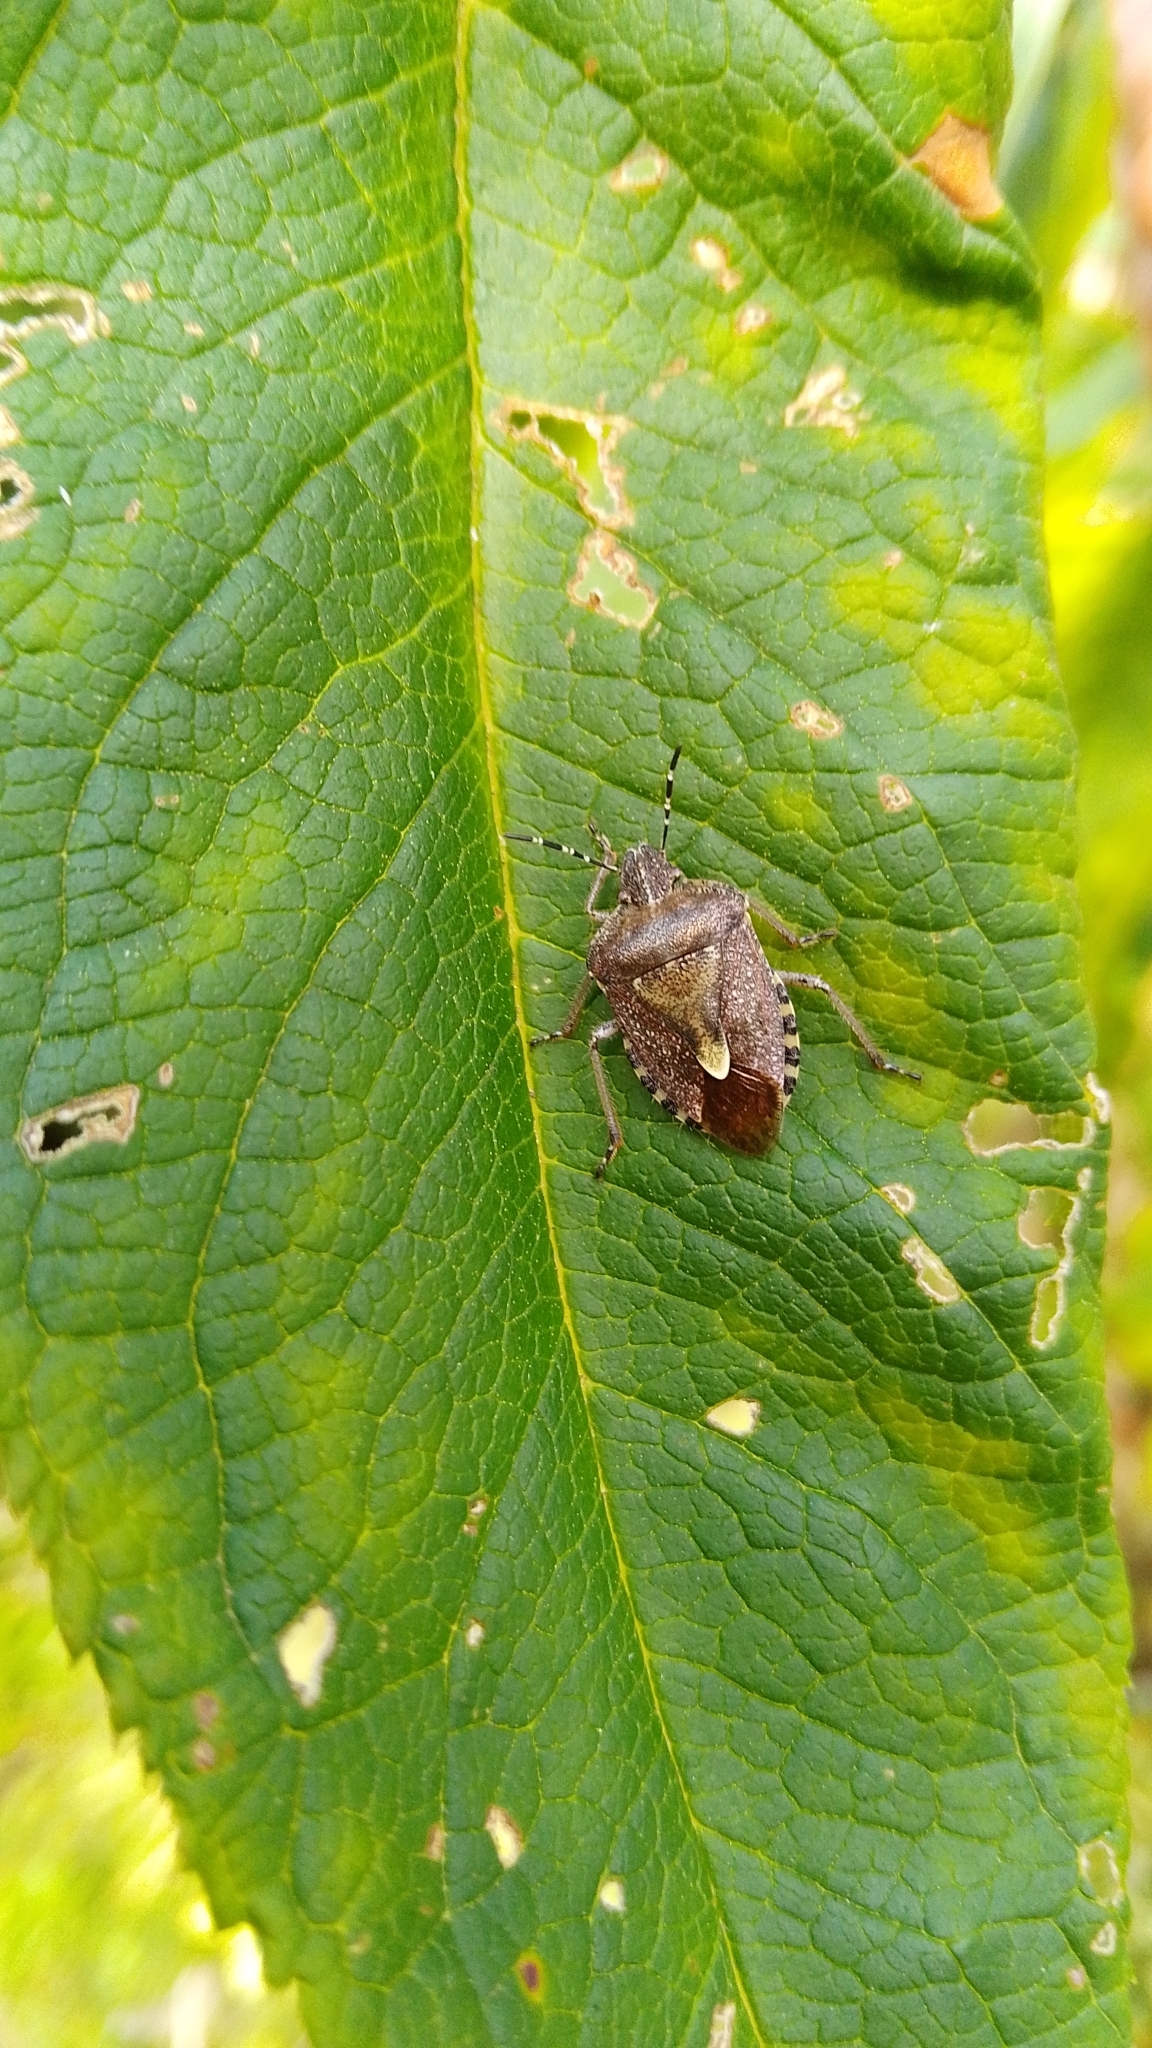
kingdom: Animalia
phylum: Arthropoda
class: Insecta
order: Hemiptera
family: Pentatomidae
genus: Dolycoris
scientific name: Dolycoris baccarum
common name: Sloe bug
